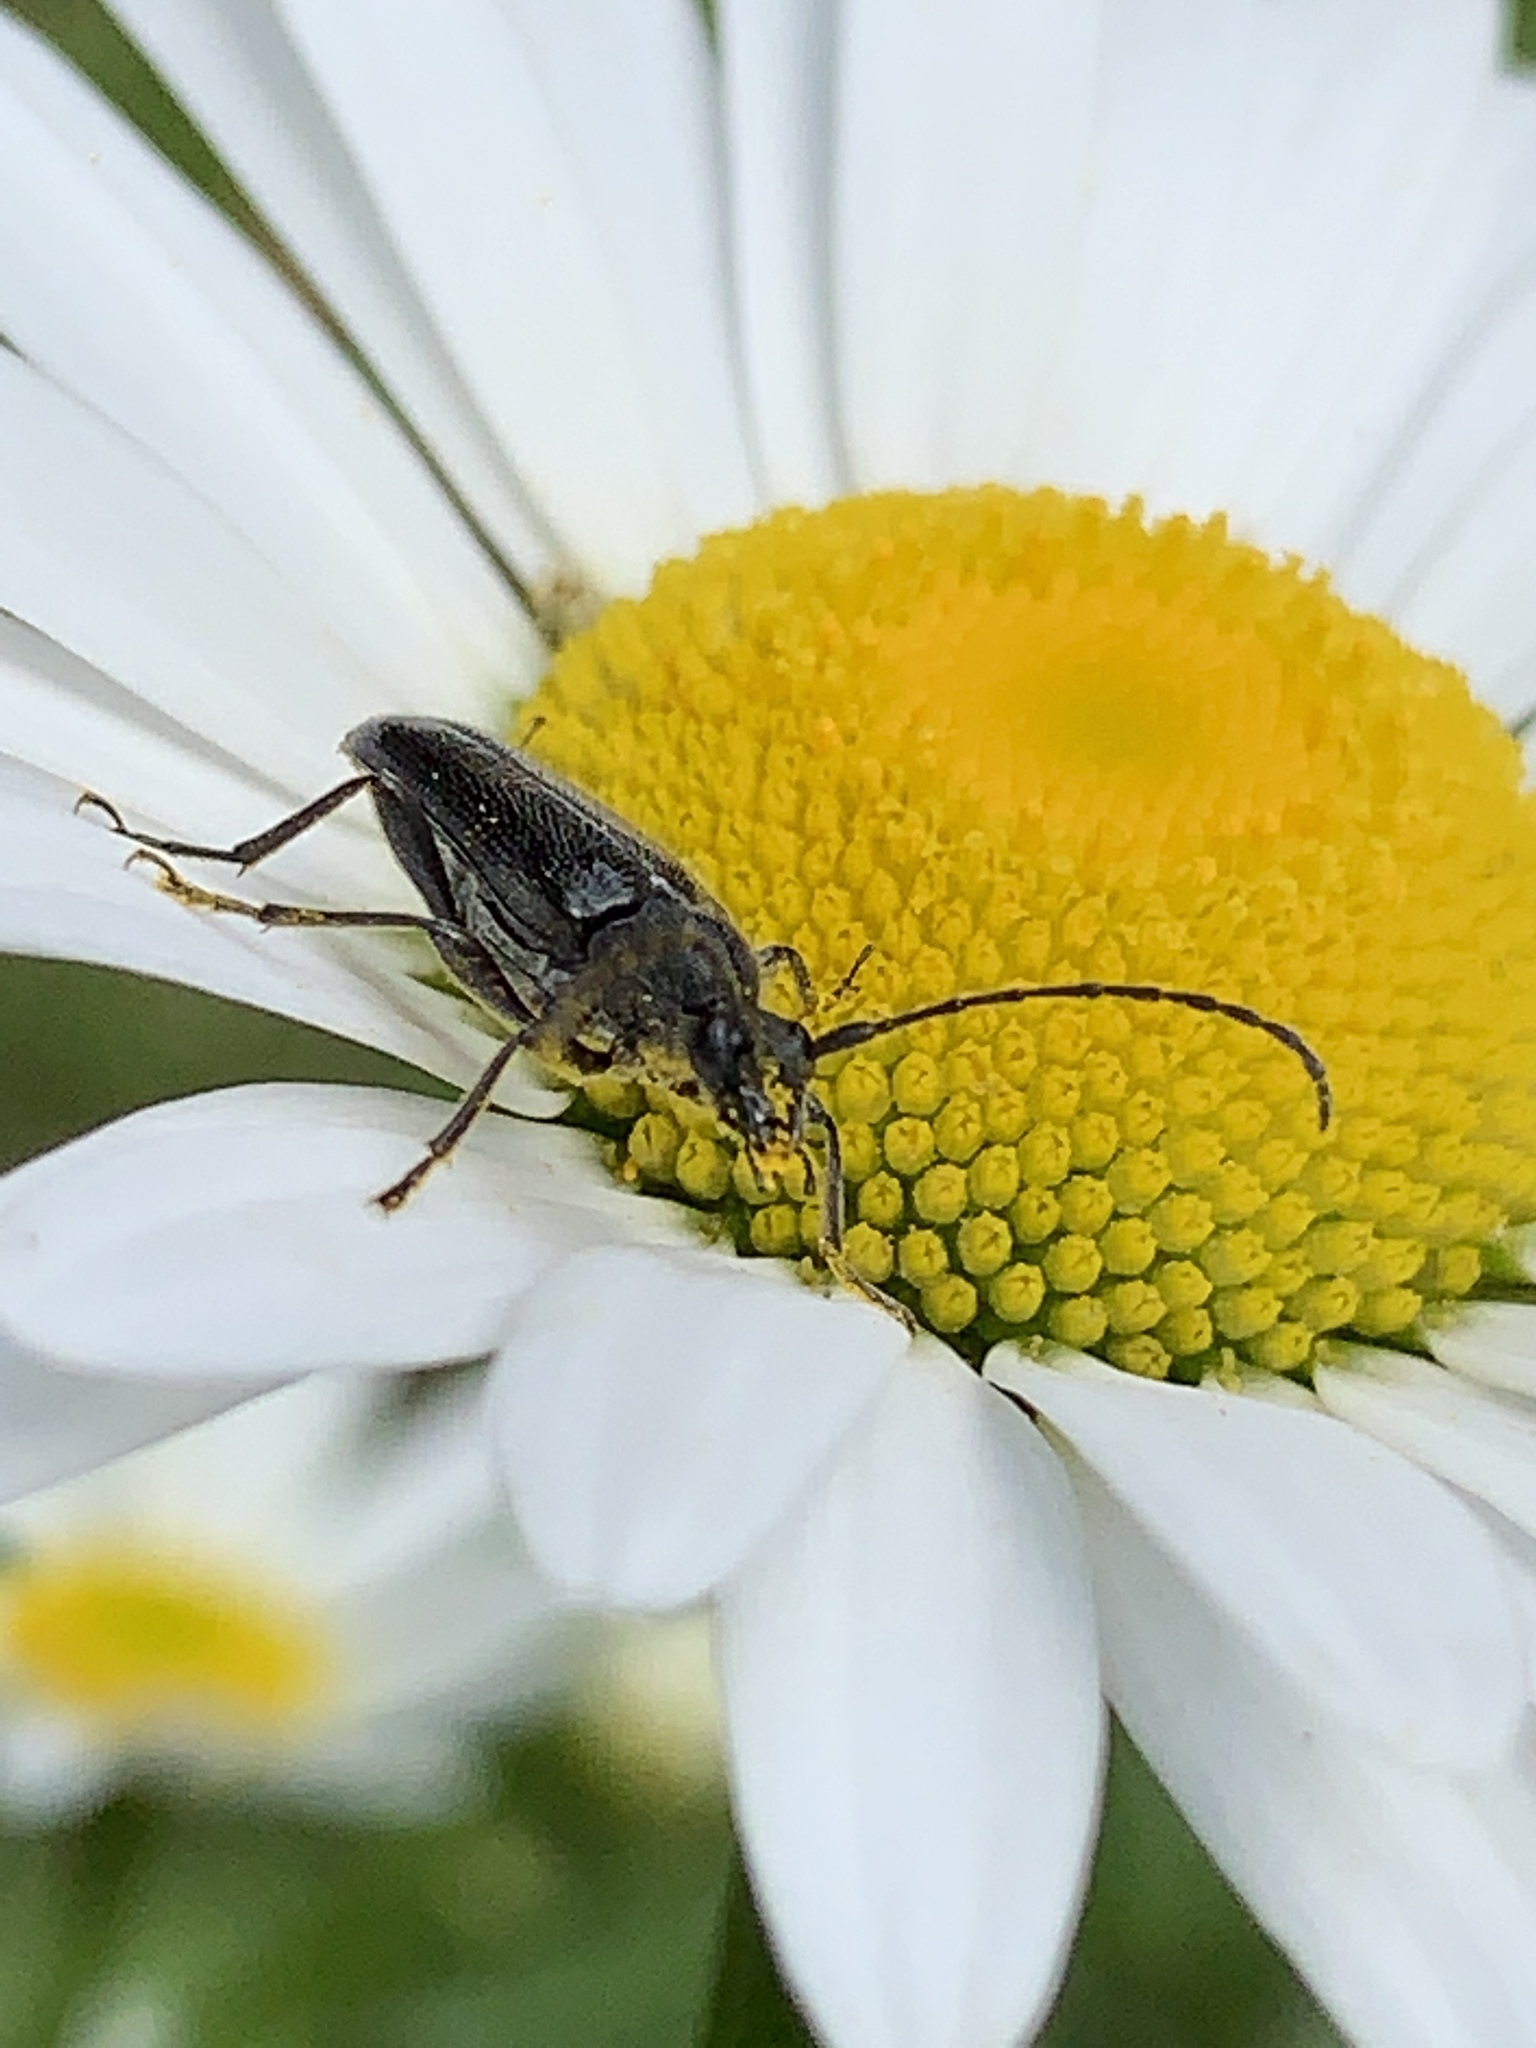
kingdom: Animalia
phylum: Arthropoda
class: Insecta
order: Coleoptera
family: Cerambycidae
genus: Anoplodera
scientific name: Anoplodera pubera
